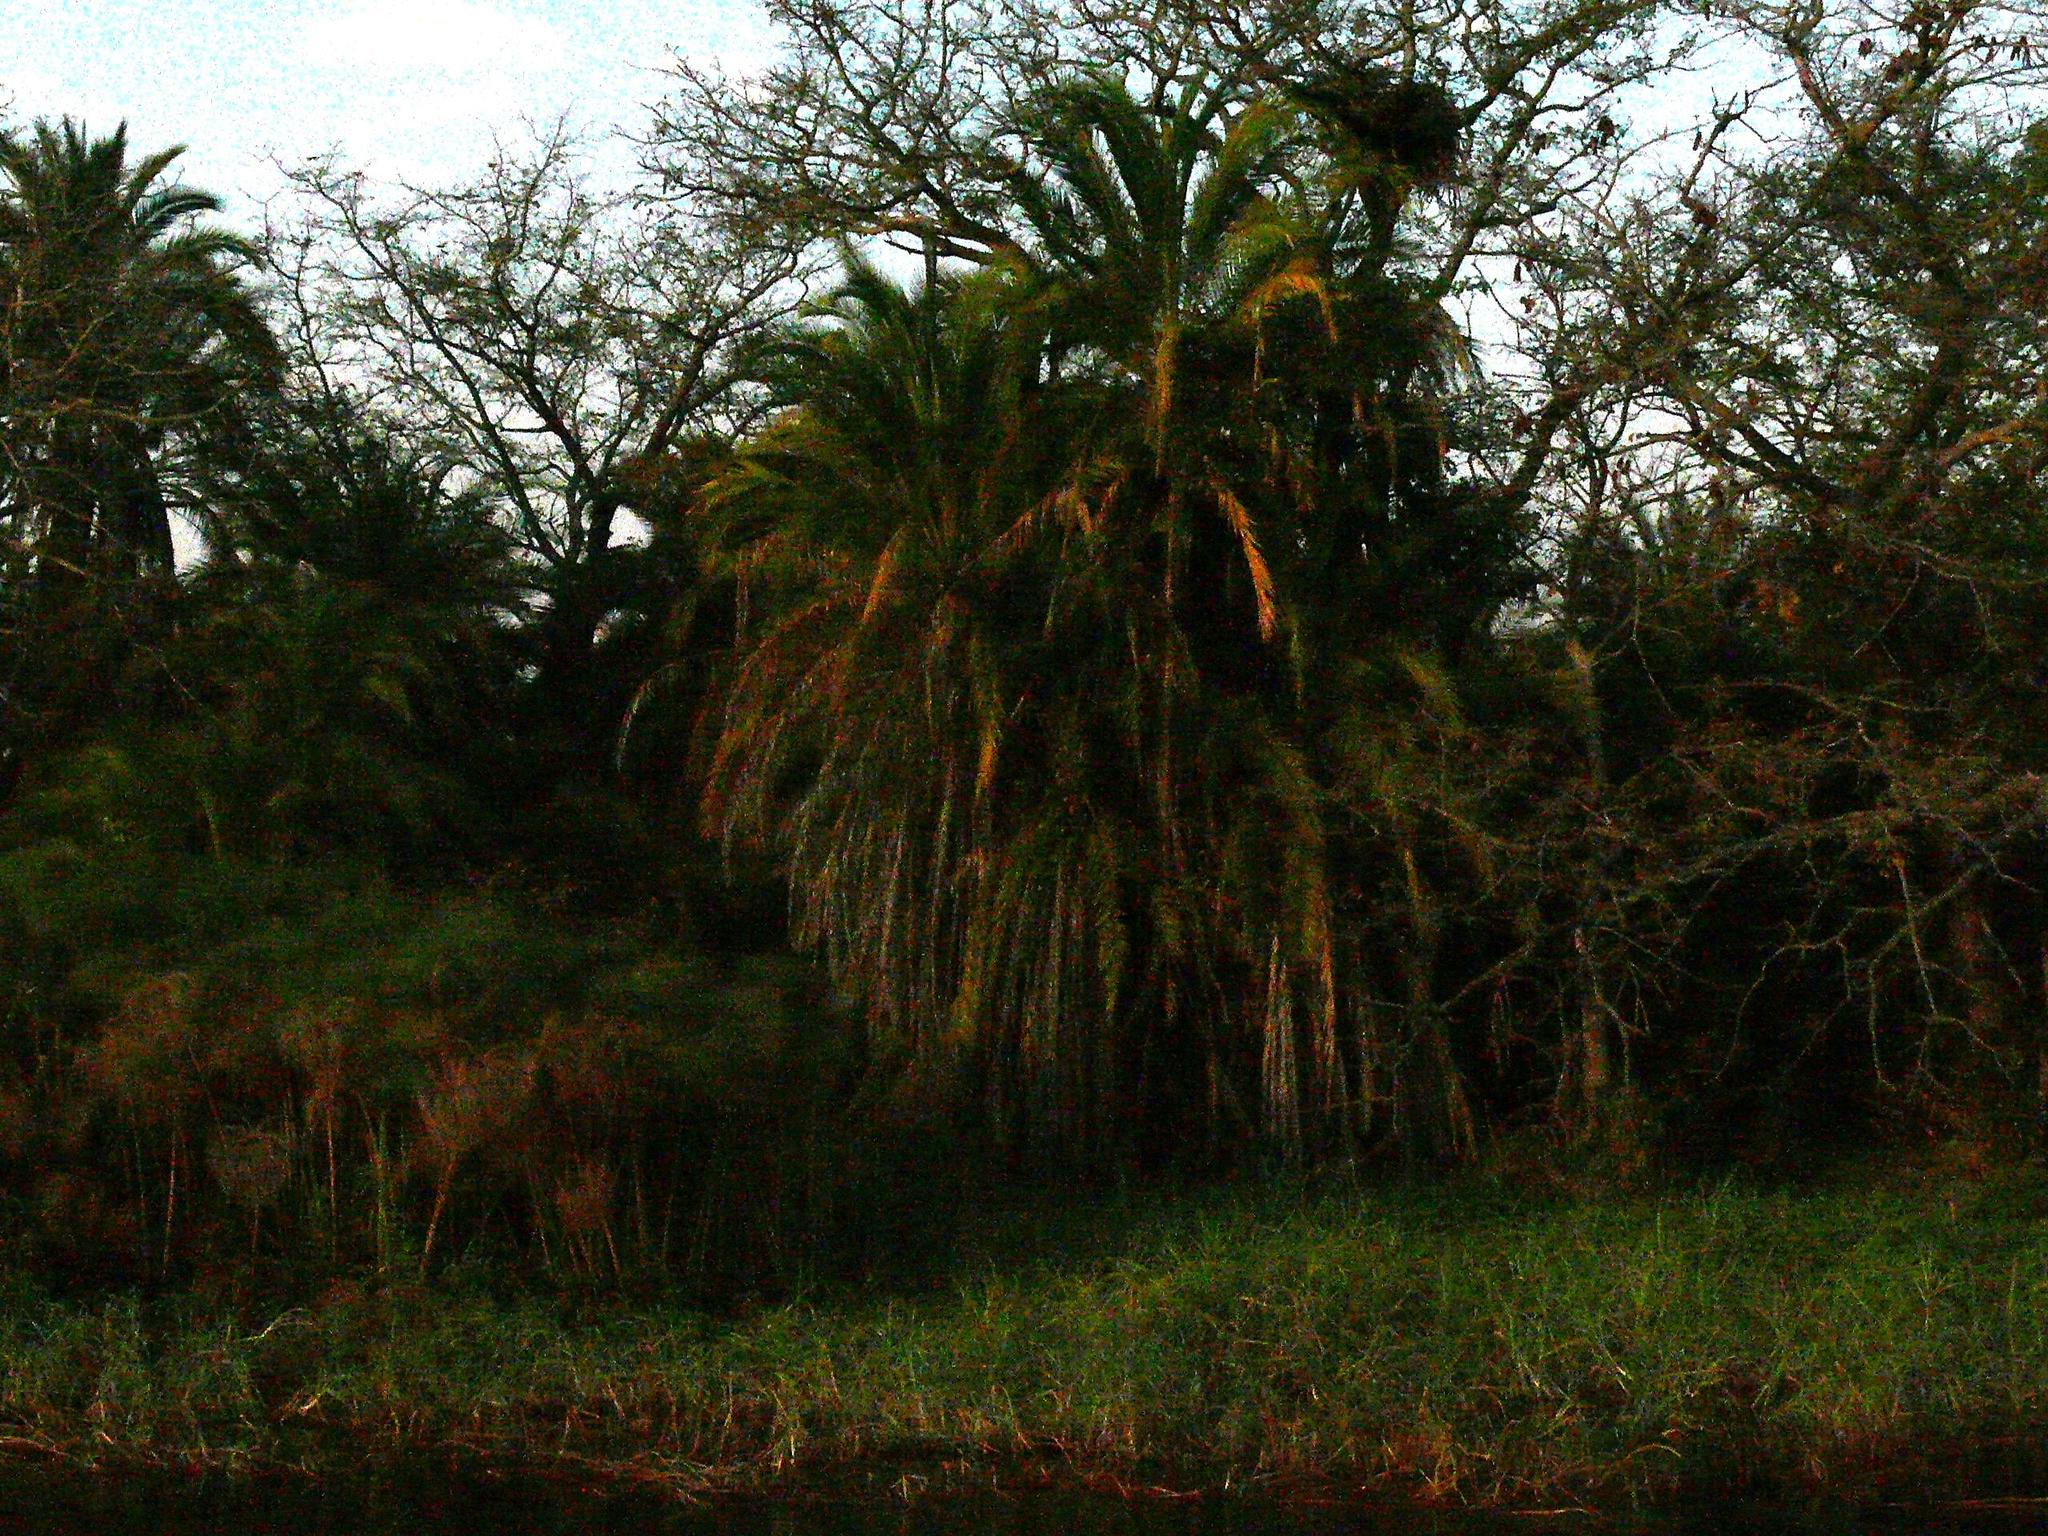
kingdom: Plantae
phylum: Tracheophyta
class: Liliopsida
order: Arecales
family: Arecaceae
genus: Phoenix
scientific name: Phoenix reclinata
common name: Senegal date palm
